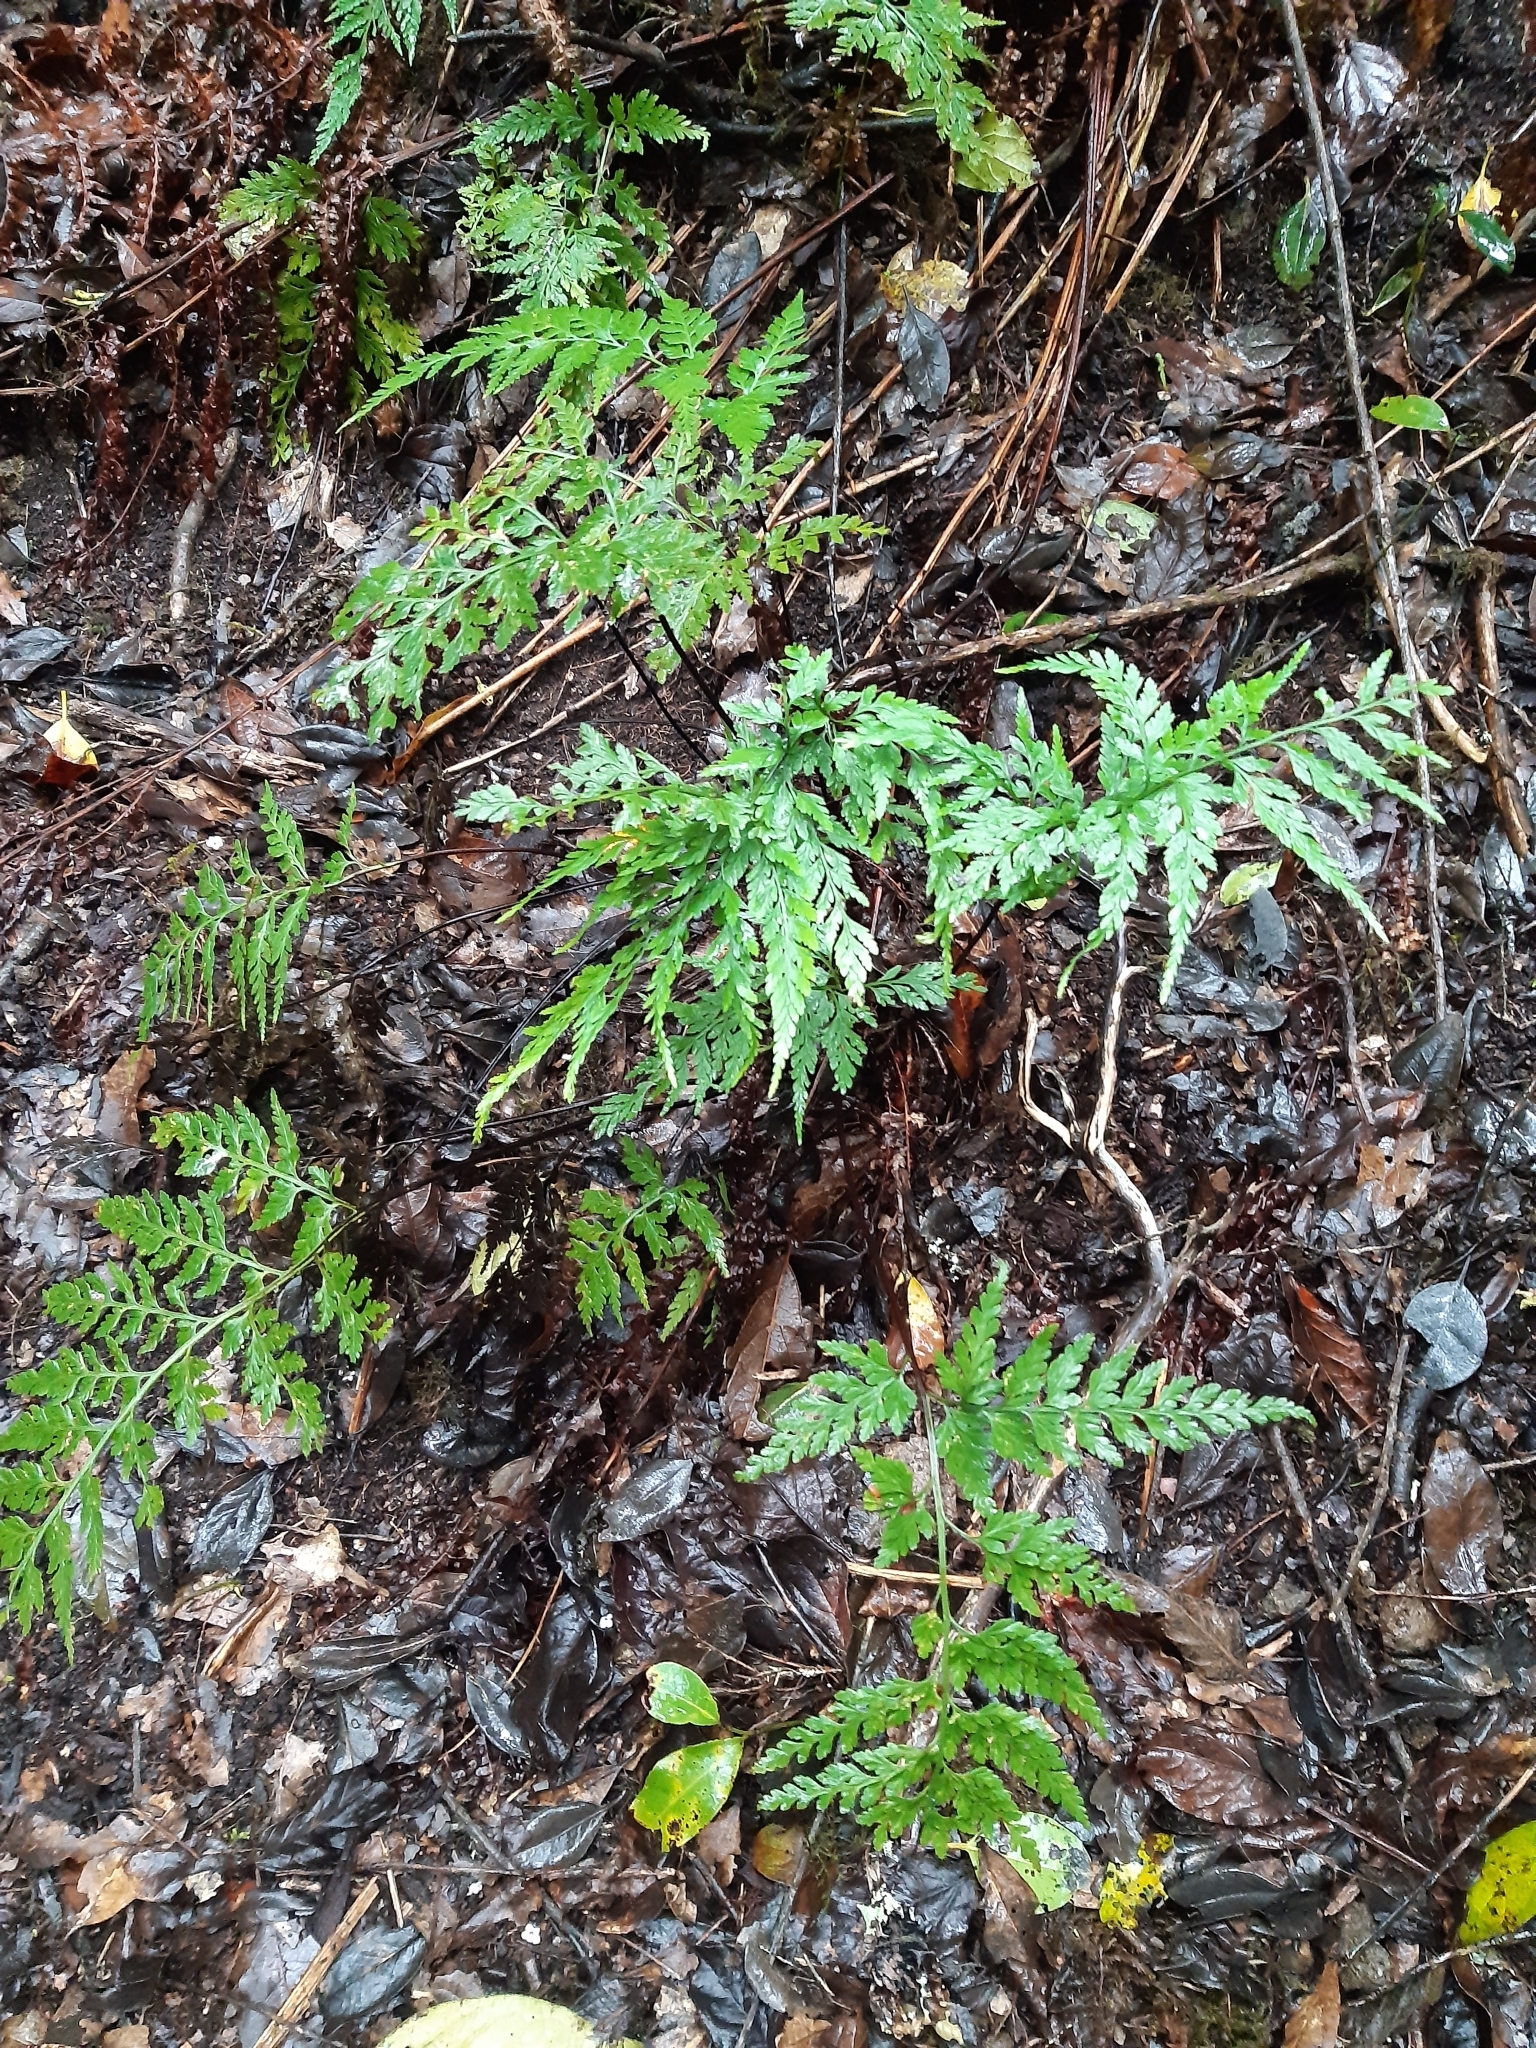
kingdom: Plantae
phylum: Tracheophyta
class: Polypodiopsida
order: Polypodiales
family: Aspleniaceae
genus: Asplenium
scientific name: Asplenium onopteris
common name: Irish spleenwort
